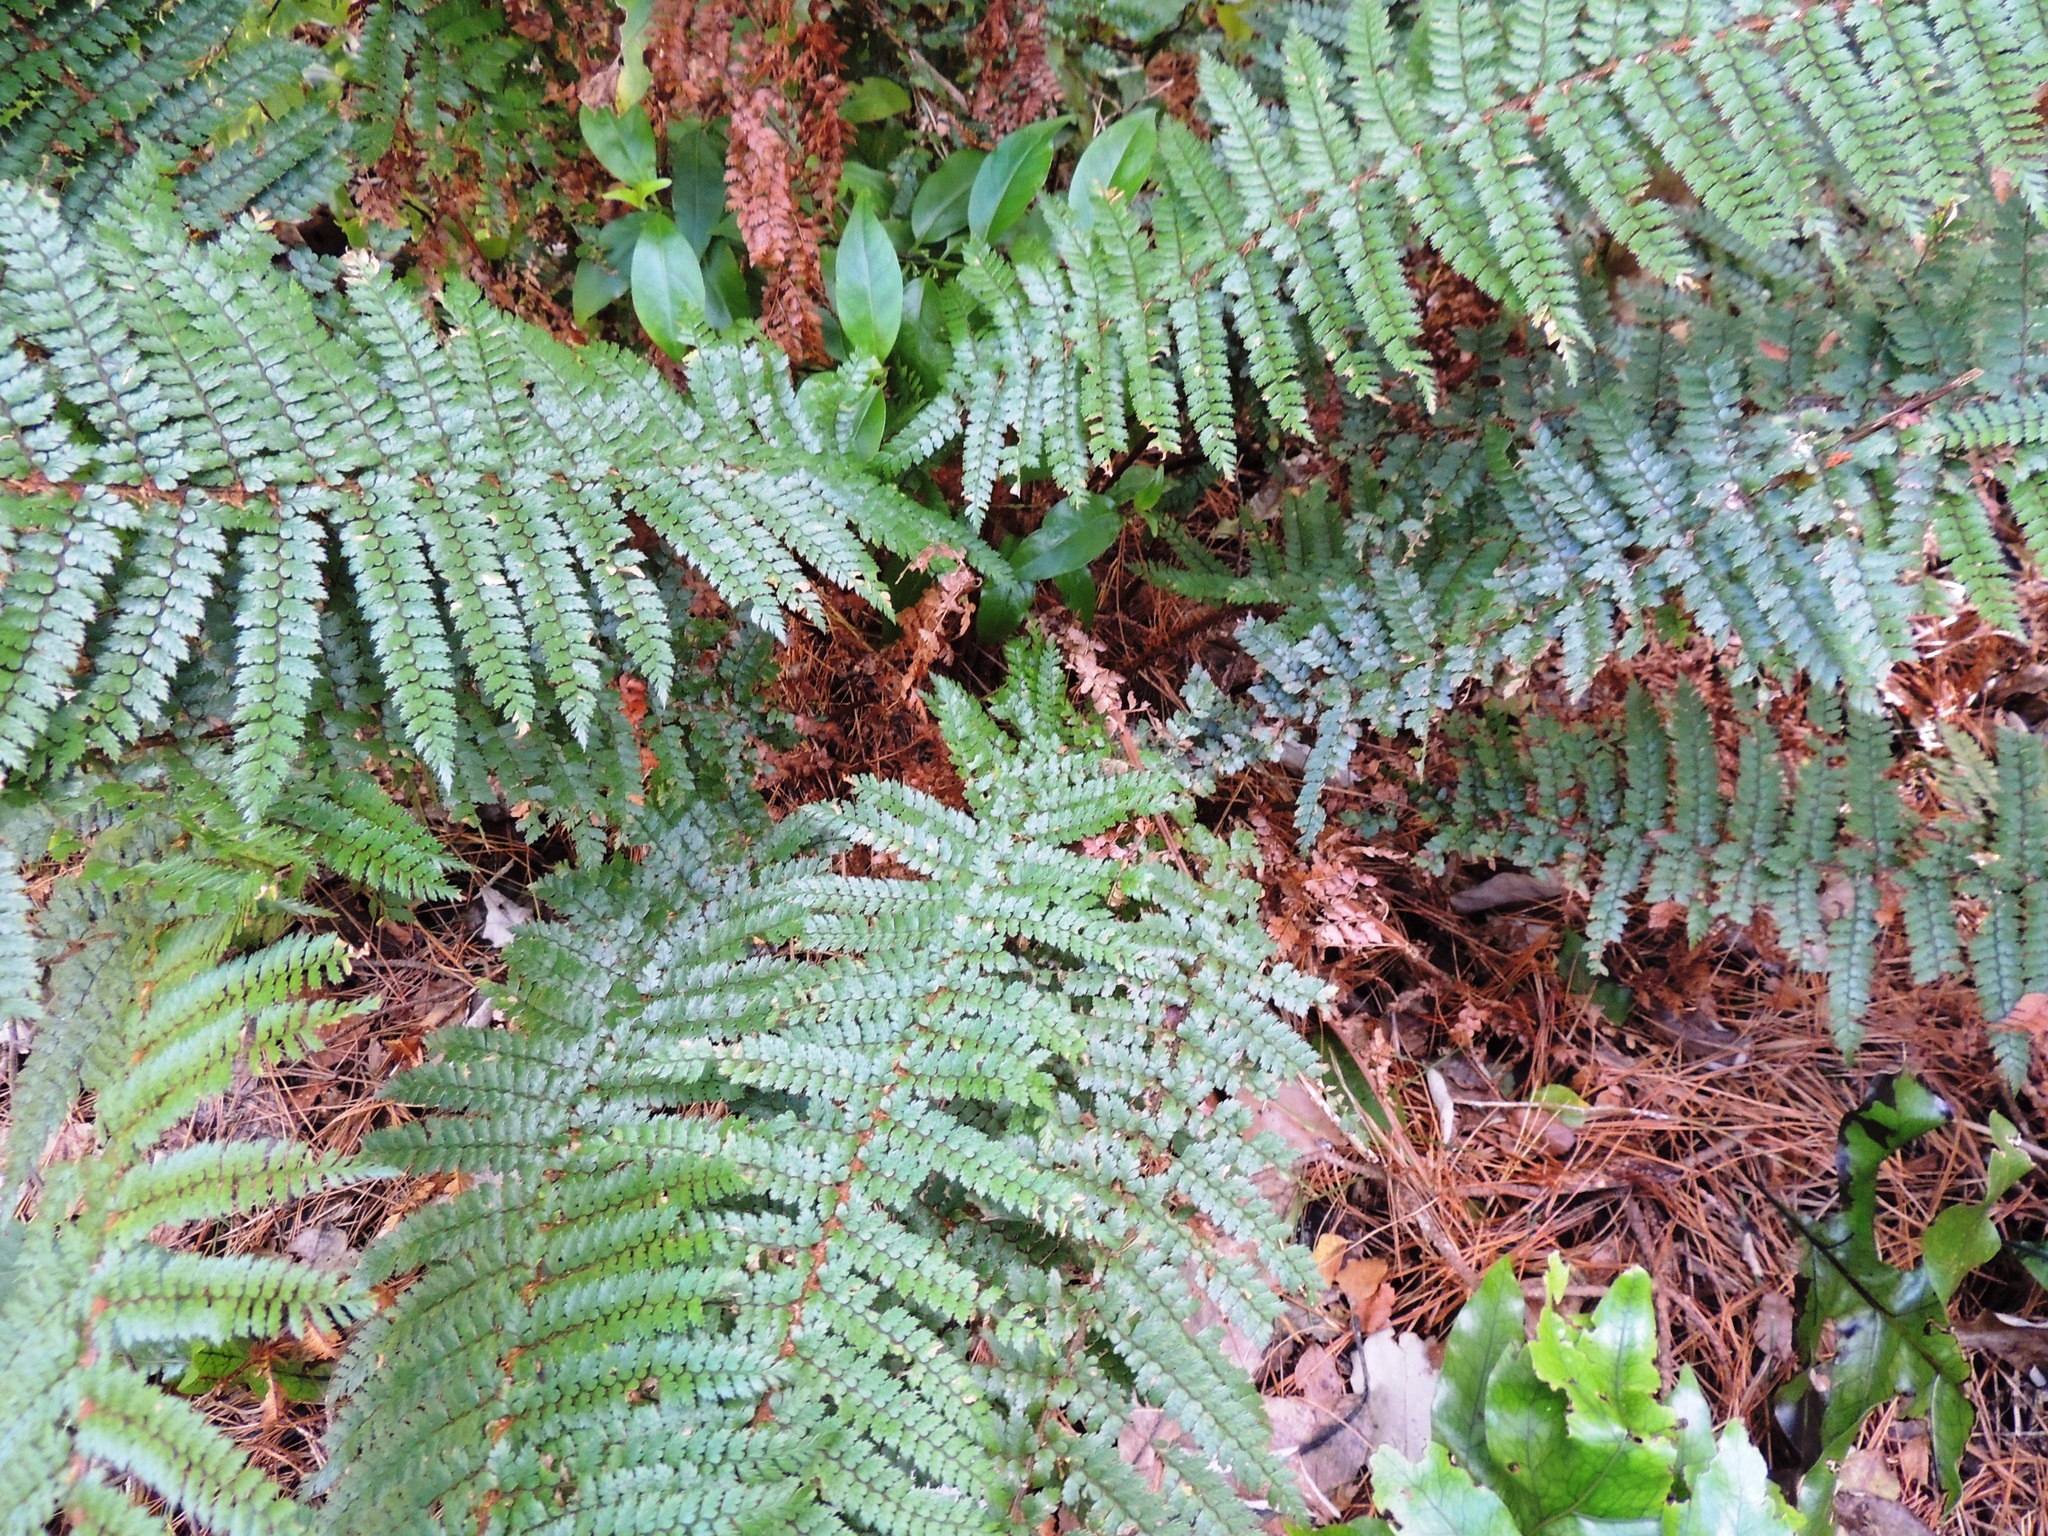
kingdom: Plantae
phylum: Tracheophyta
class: Polypodiopsida
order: Polypodiales
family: Dryopteridaceae
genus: Polystichum
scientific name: Polystichum vestitum
